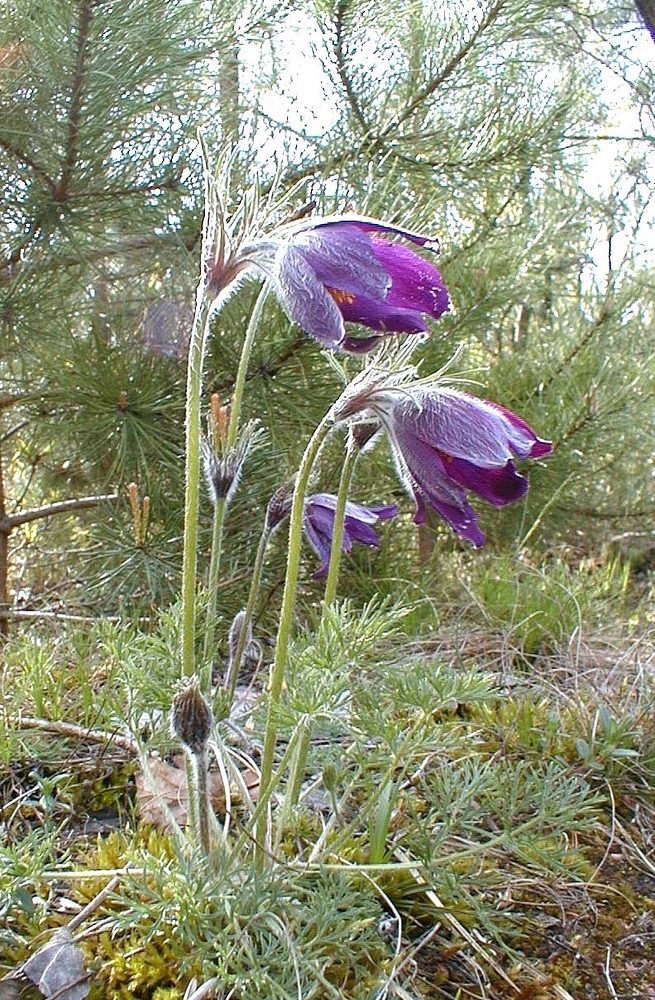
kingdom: Plantae
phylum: Tracheophyta
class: Magnoliopsida
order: Ranunculales
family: Ranunculaceae
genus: Pulsatilla
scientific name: Pulsatilla vulgaris
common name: Pasqueflower
